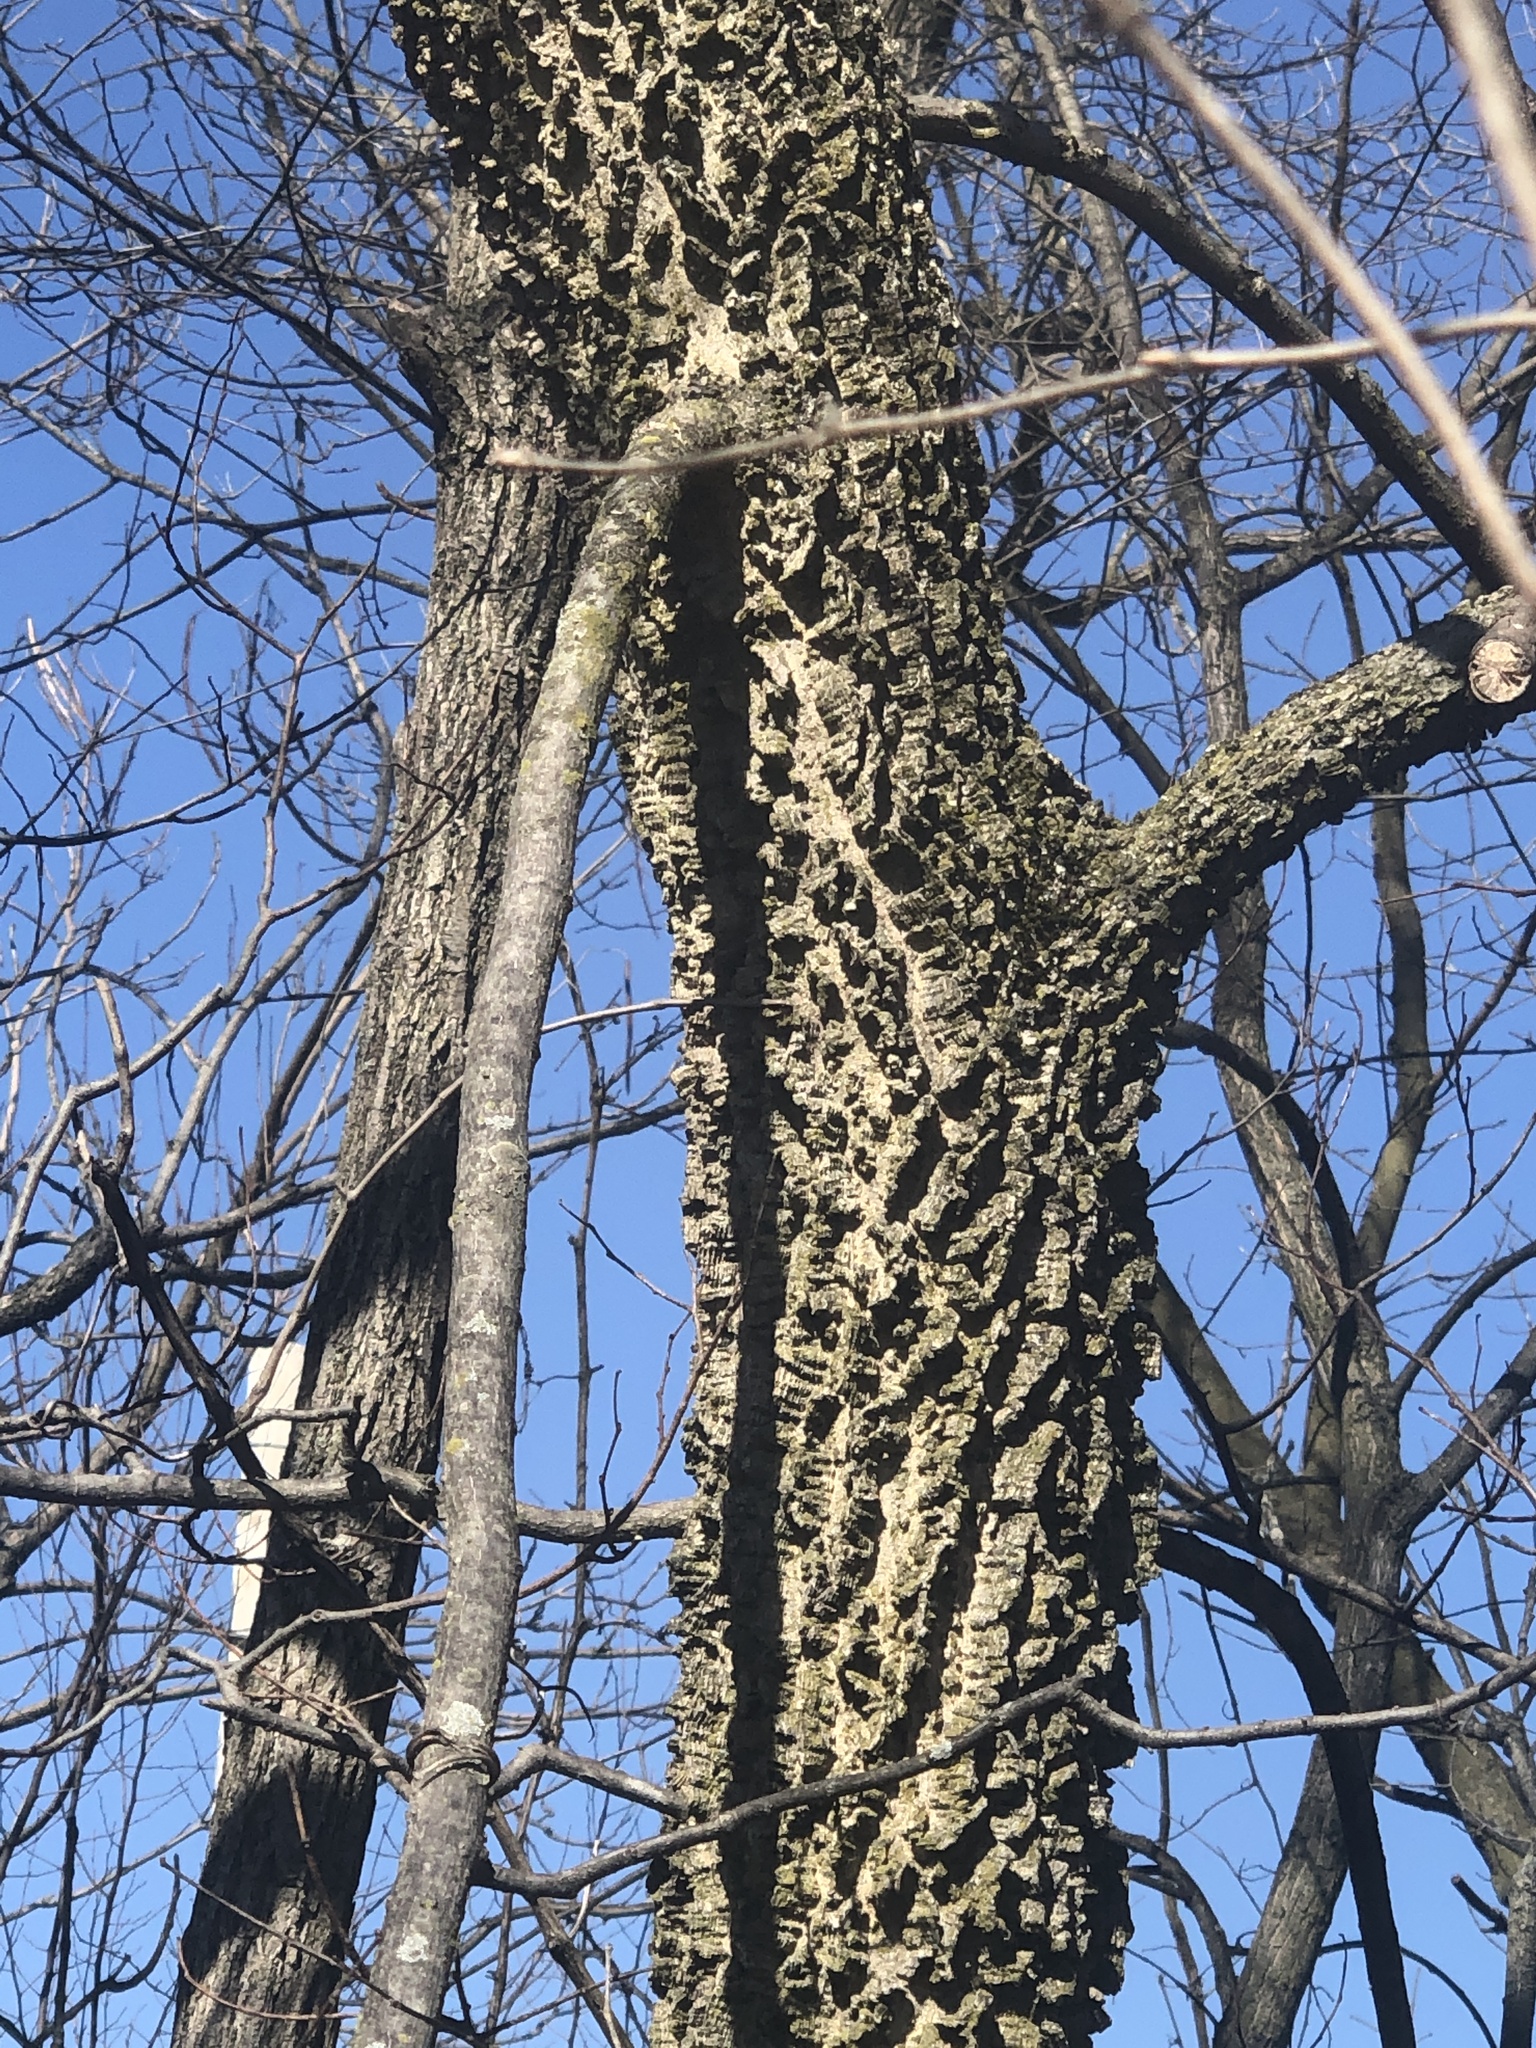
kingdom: Plantae
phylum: Tracheophyta
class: Magnoliopsida
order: Rosales
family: Cannabaceae
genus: Celtis
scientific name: Celtis occidentalis
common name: Common hackberry
